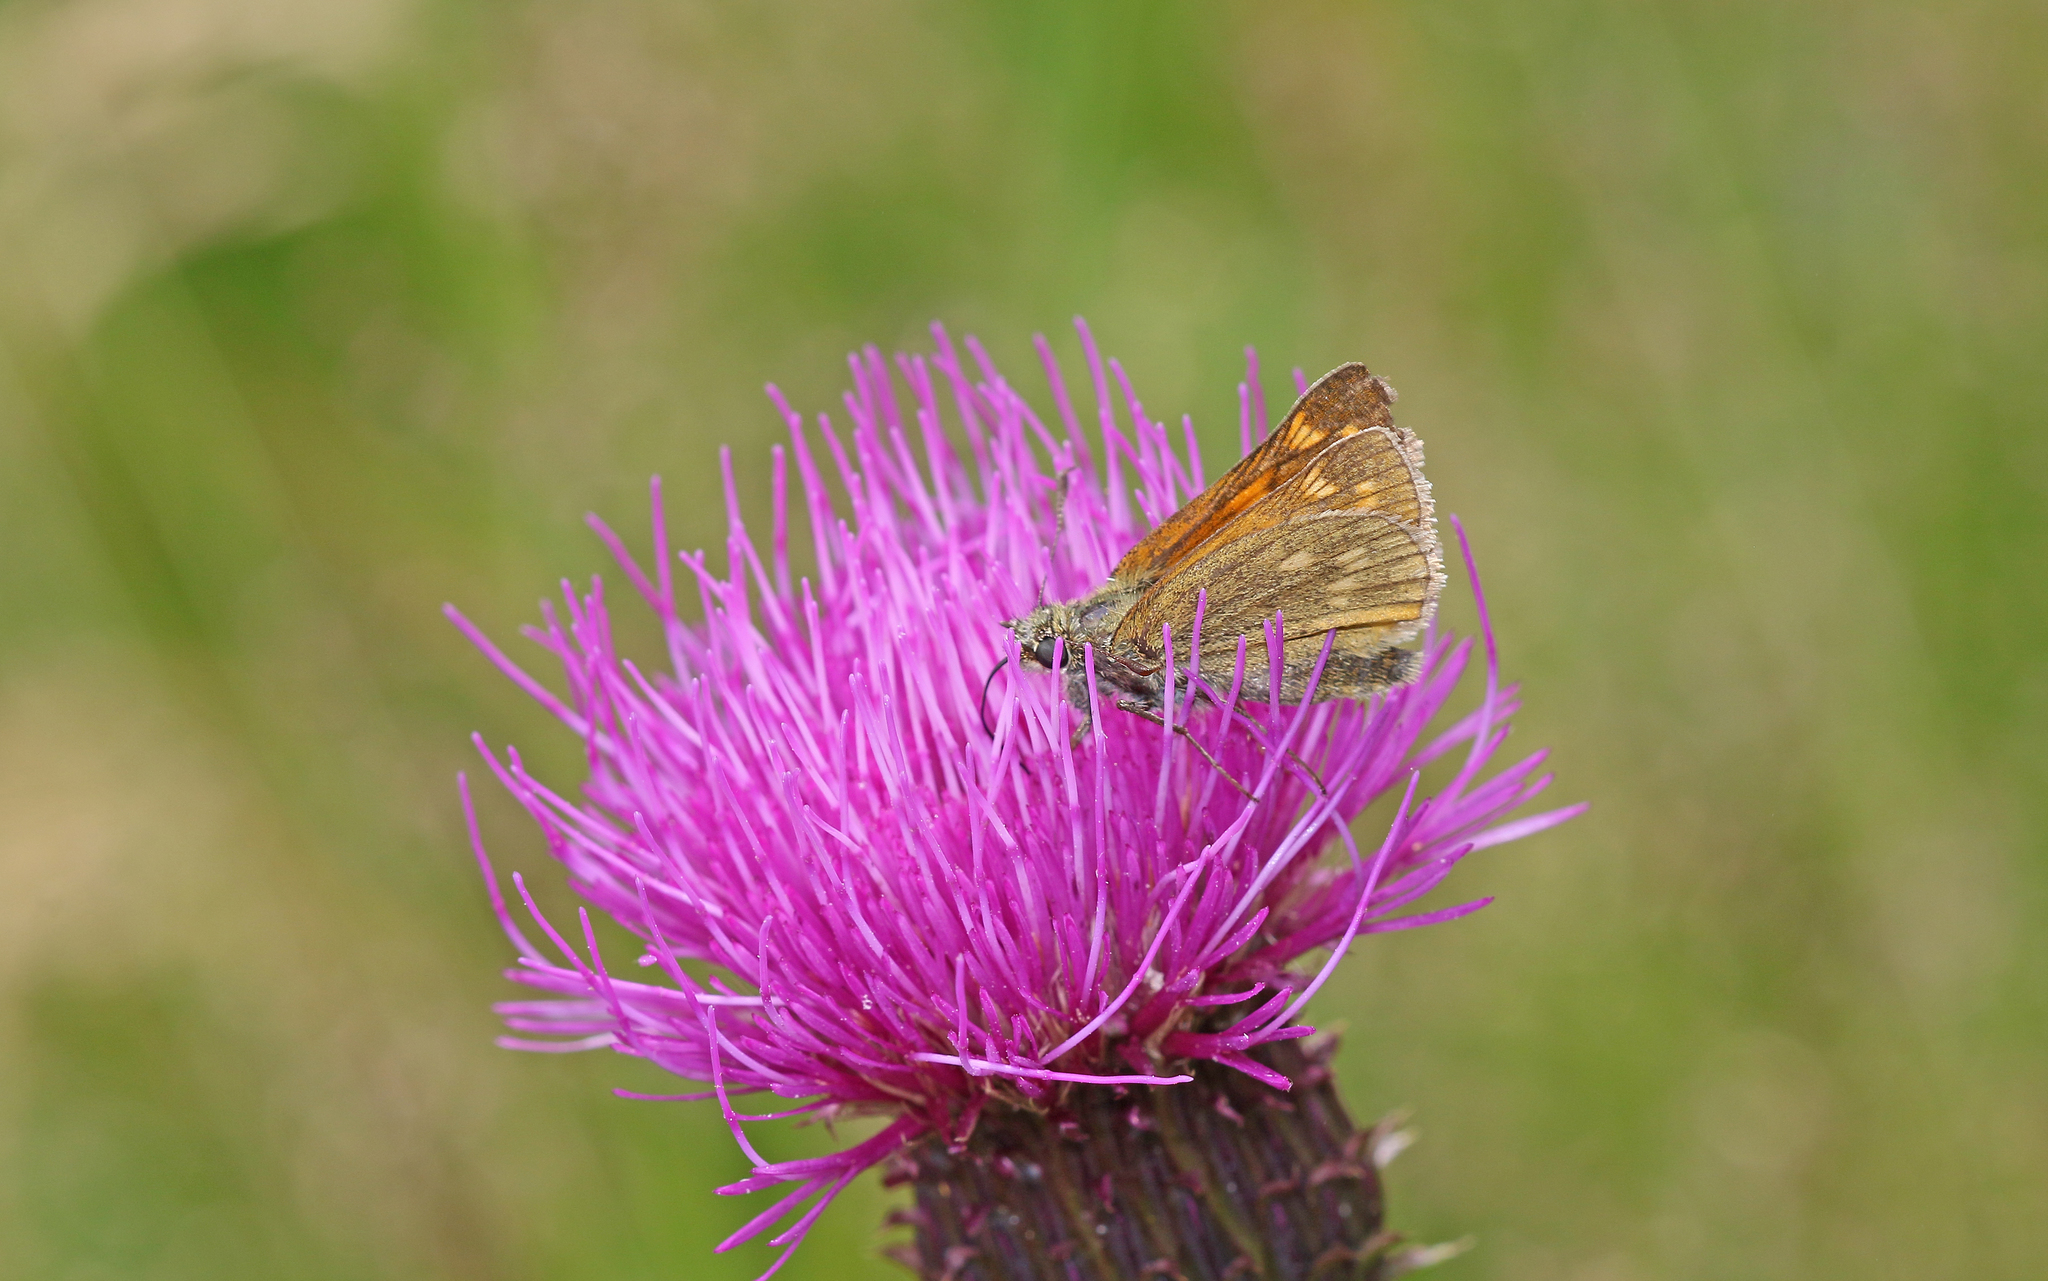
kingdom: Animalia
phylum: Arthropoda
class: Insecta
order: Lepidoptera
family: Hesperiidae
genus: Ochlodes
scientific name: Ochlodes venata
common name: Large skipper
